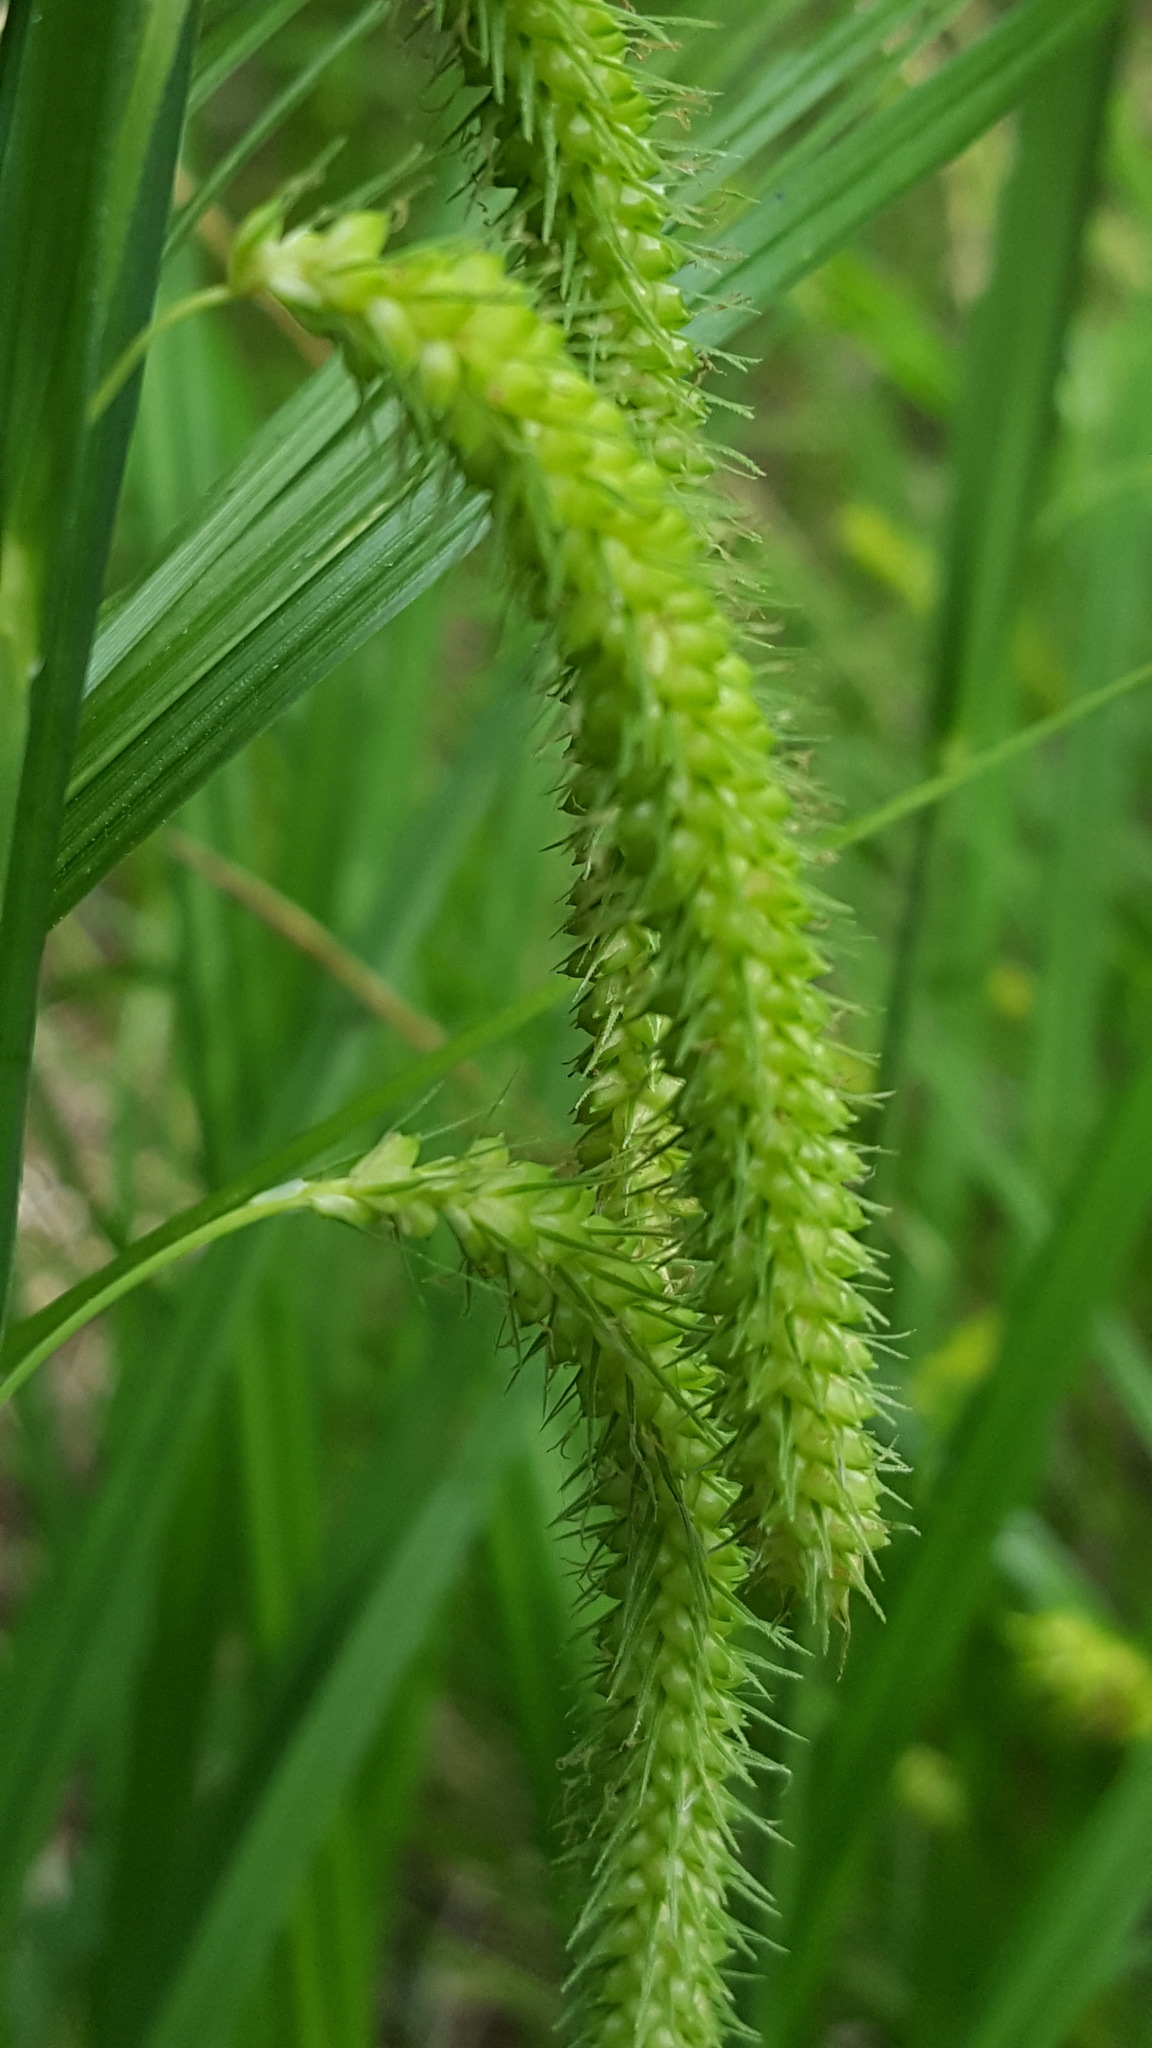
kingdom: Plantae
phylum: Tracheophyta
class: Liliopsida
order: Poales
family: Cyperaceae
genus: Carex
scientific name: Carex crinita
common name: Fringed sedge
